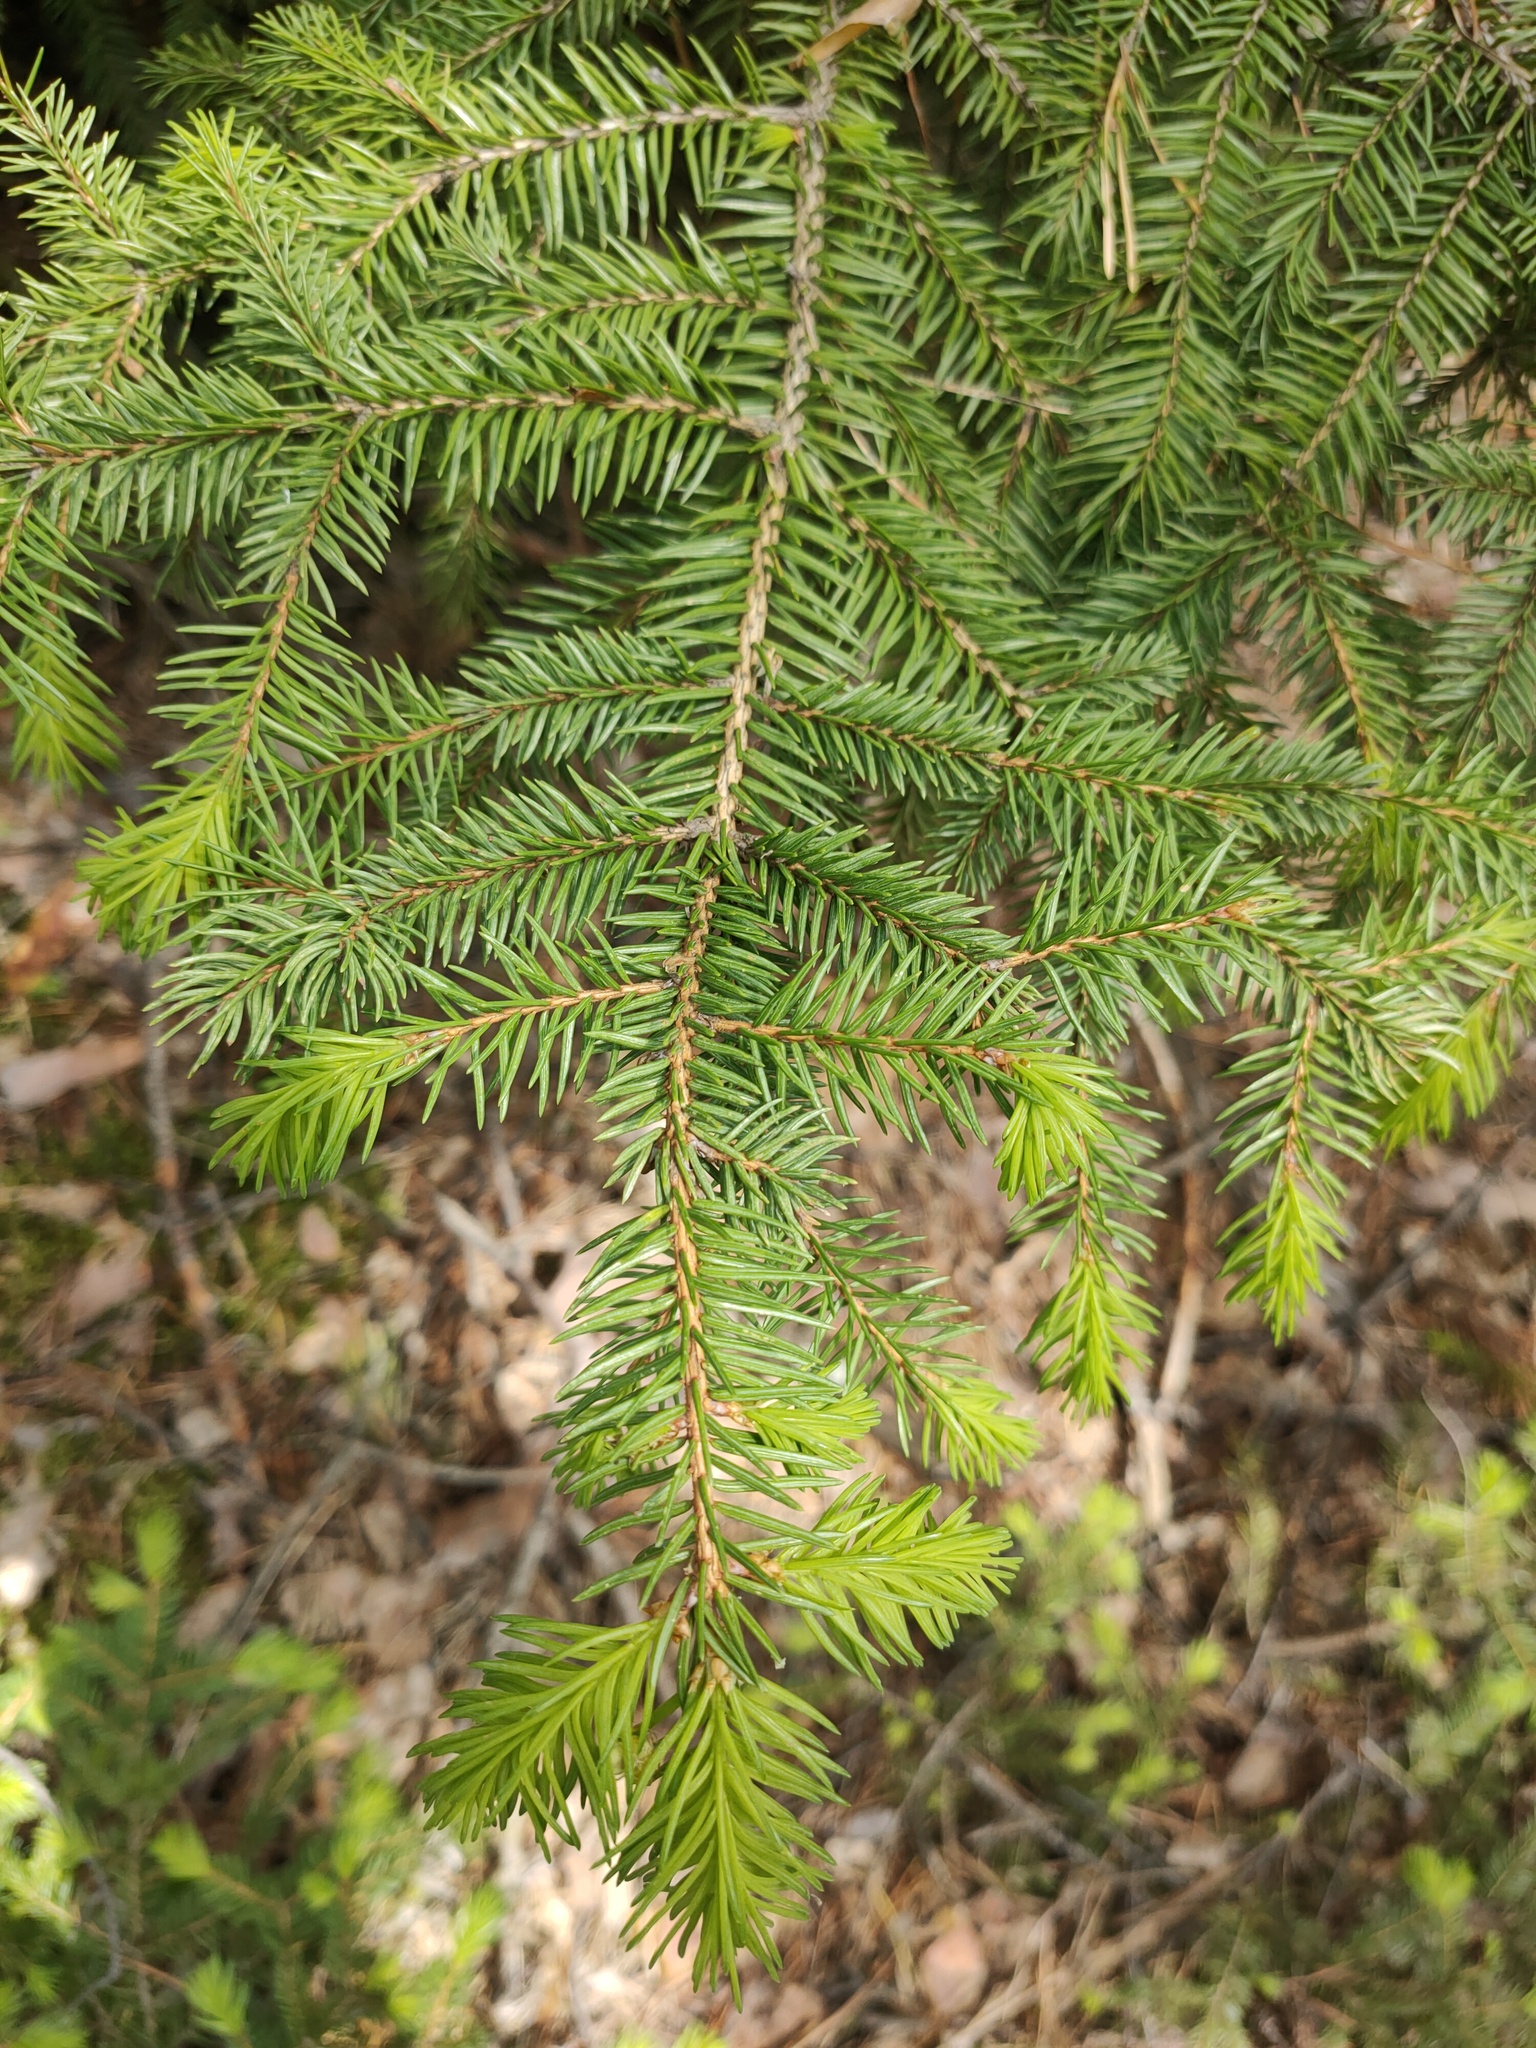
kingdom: Plantae
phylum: Tracheophyta
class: Pinopsida
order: Pinales
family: Pinaceae
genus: Picea
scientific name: Picea
